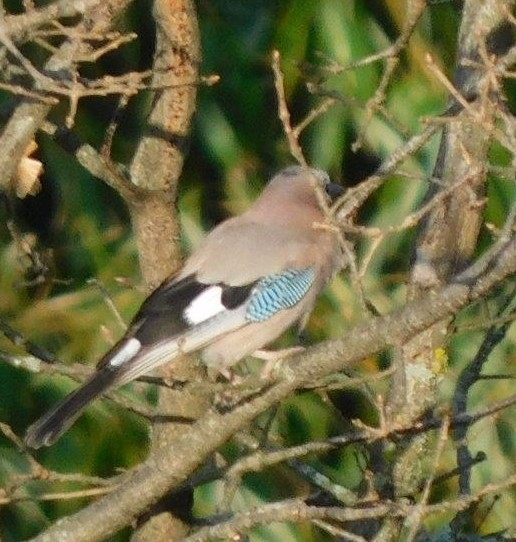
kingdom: Animalia
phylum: Chordata
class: Aves
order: Passeriformes
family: Corvidae
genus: Garrulus
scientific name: Garrulus glandarius
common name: Eurasian jay
